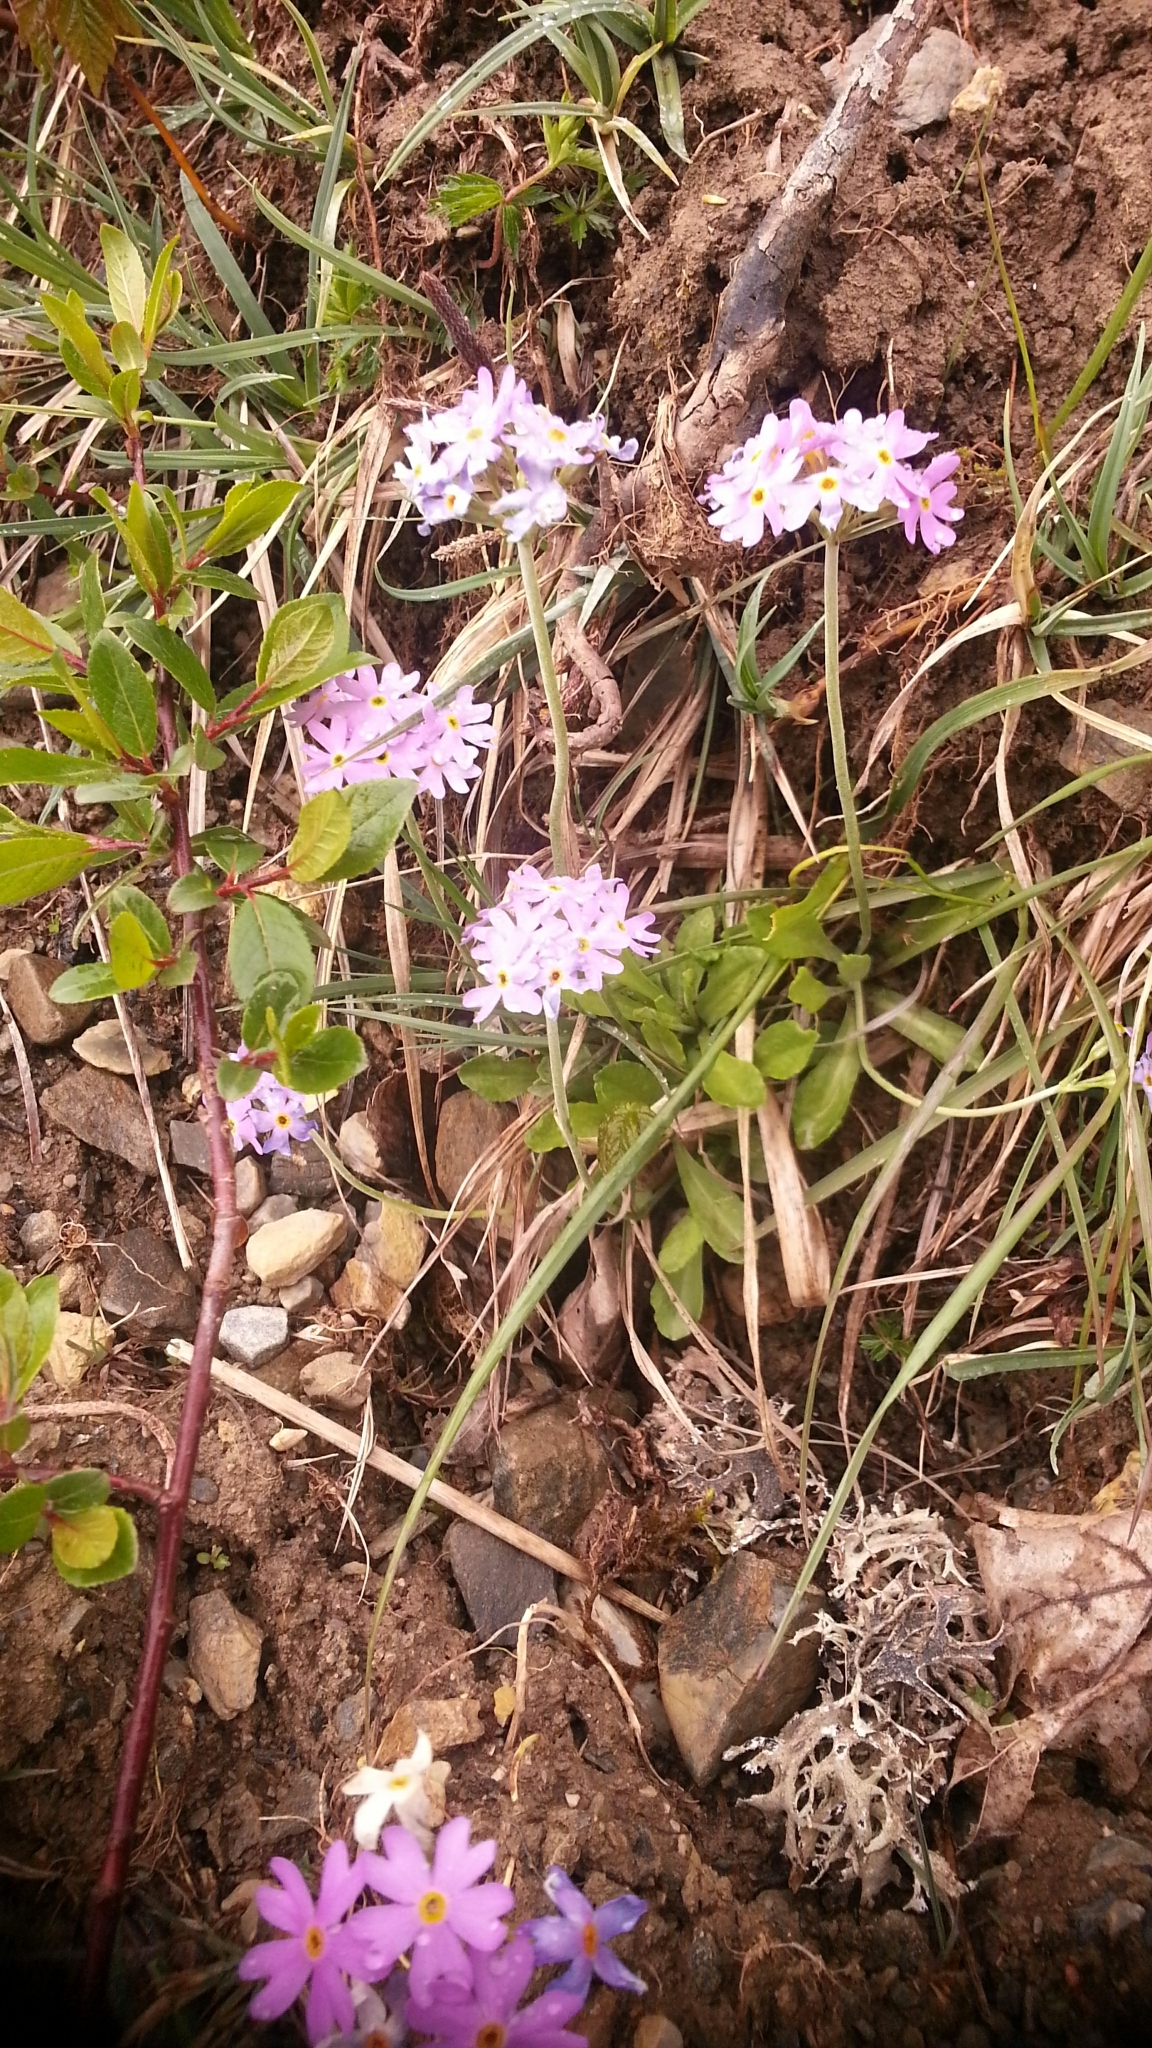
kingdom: Plantae
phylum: Tracheophyta
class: Magnoliopsida
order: Ericales
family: Primulaceae
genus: Primula
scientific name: Primula farinosa
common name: Bird's-eye primrose
